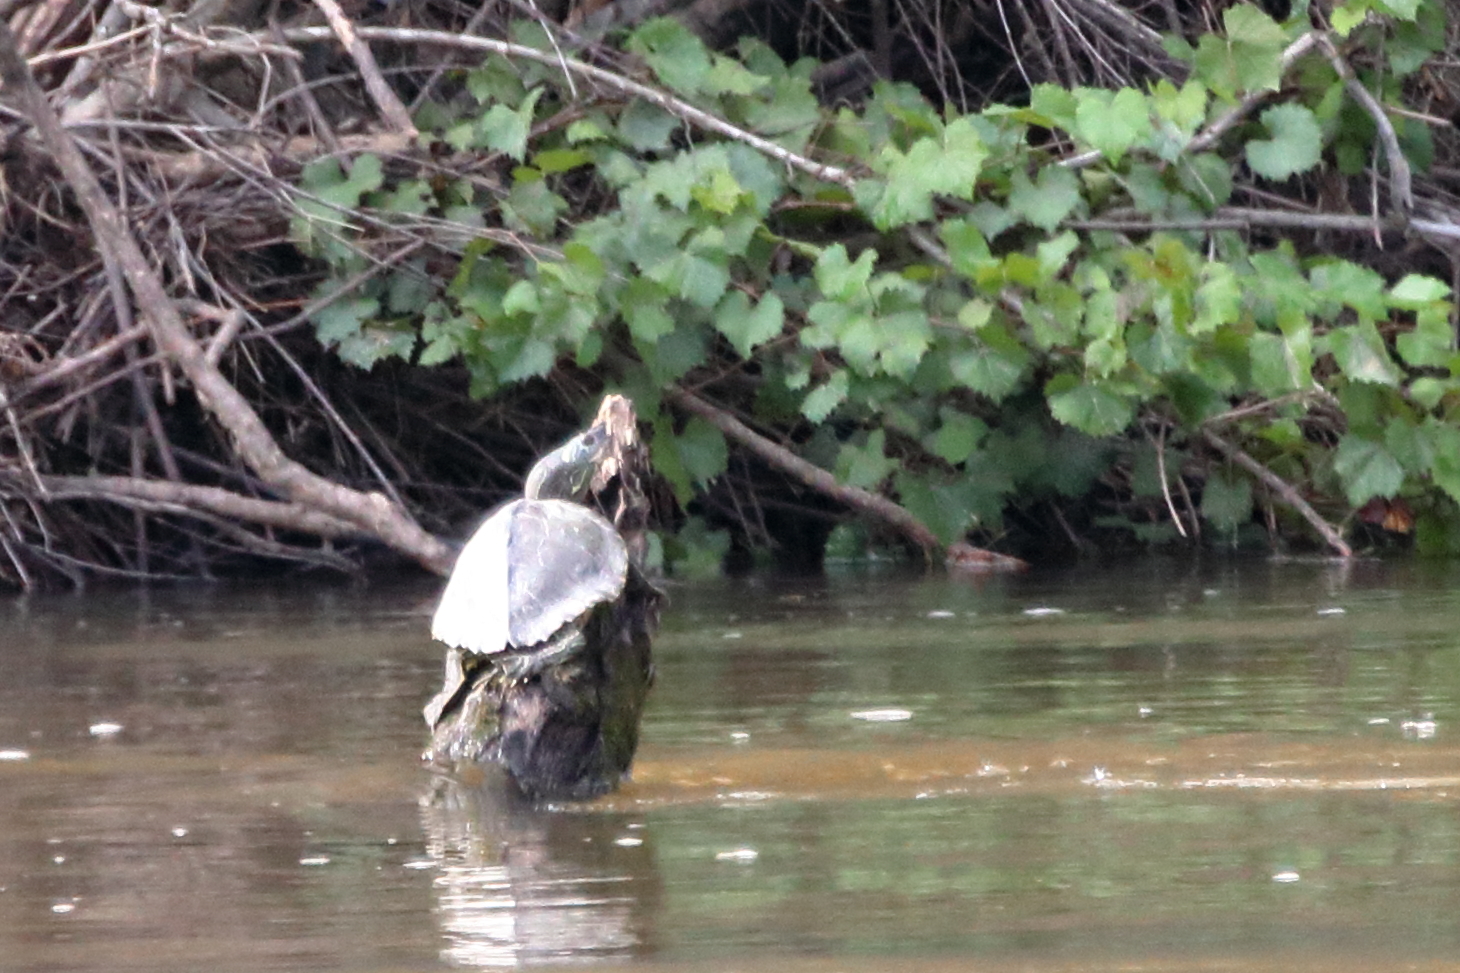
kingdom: Animalia
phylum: Chordata
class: Testudines
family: Emydidae
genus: Graptemys
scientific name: Graptemys pearlensis
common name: Pearl river map turtle
